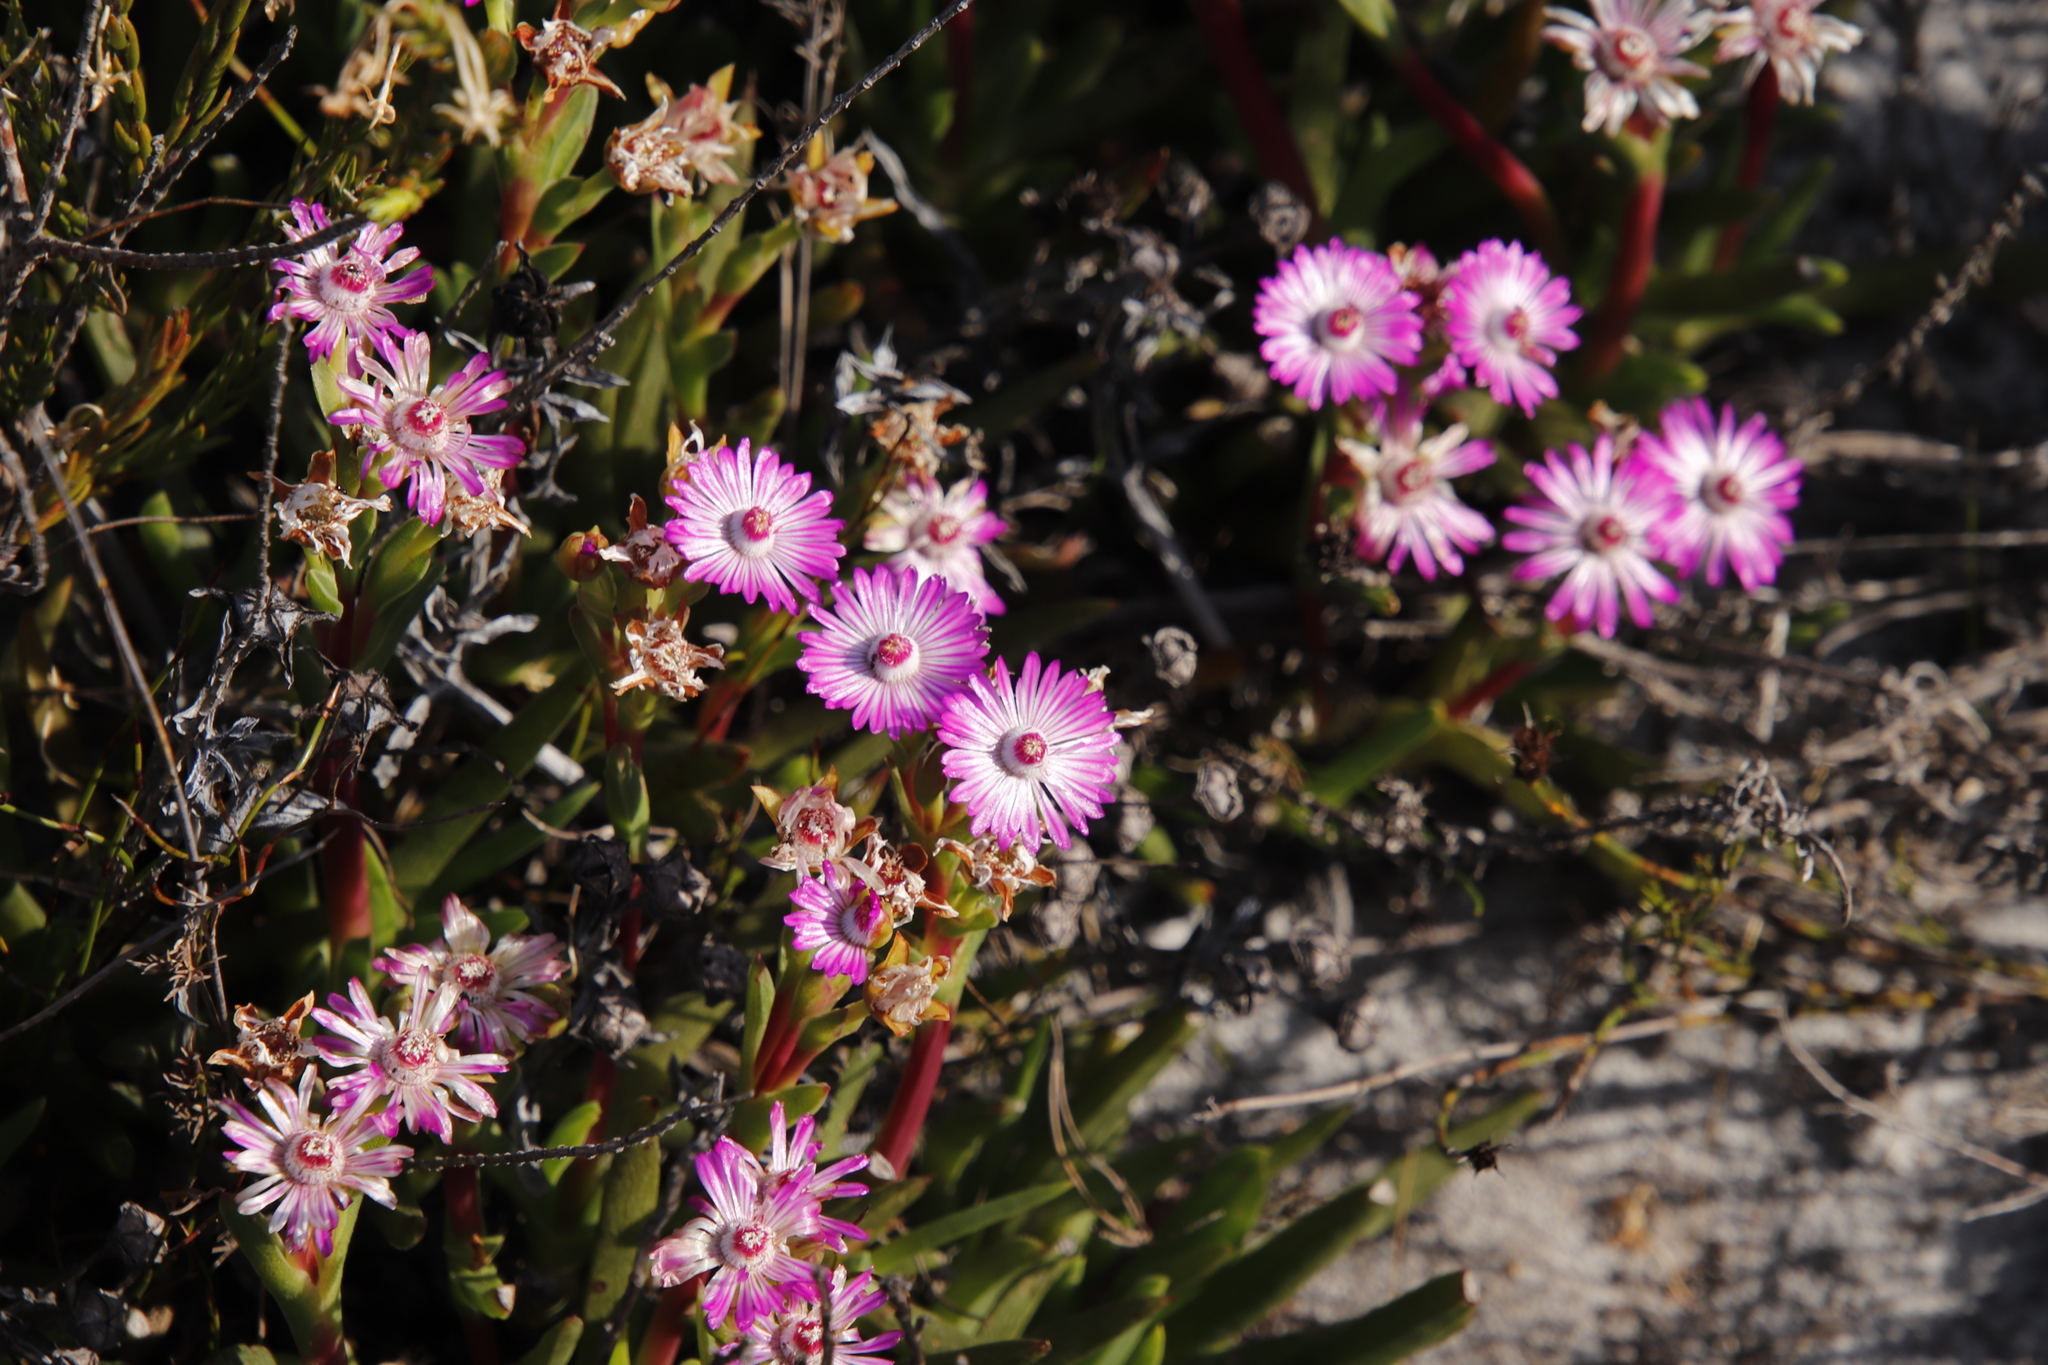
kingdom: Plantae
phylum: Tracheophyta
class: Magnoliopsida
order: Caryophyllales
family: Aizoaceae
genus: Ruschia
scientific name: Ruschia sarmentosa
